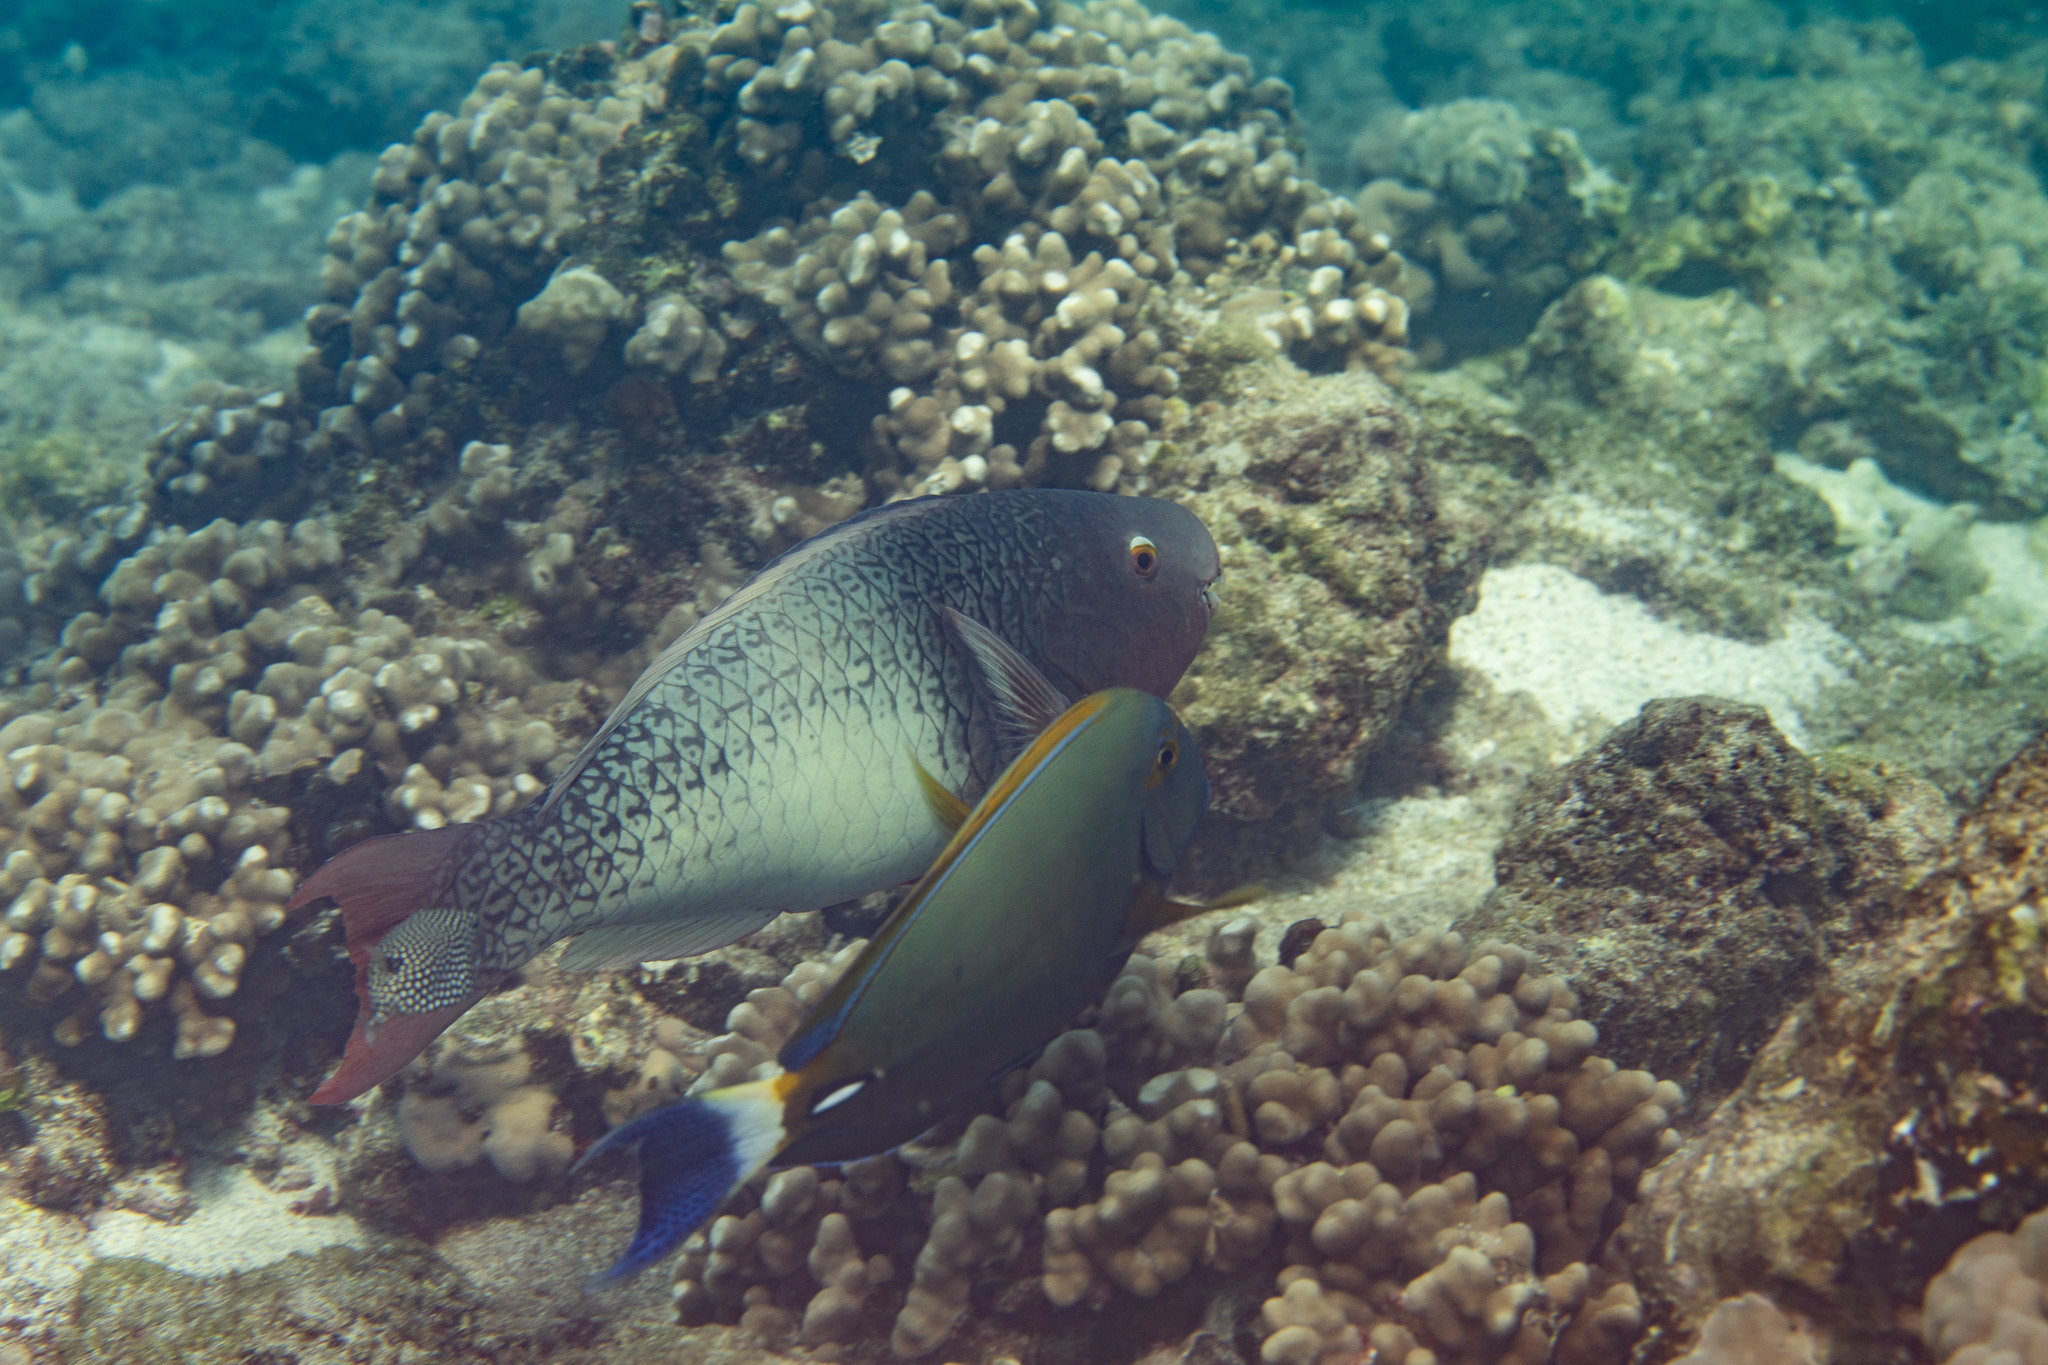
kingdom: Animalia
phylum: Chordata
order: Perciformes
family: Scaridae
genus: Scarus
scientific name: Scarus rubroviolaceus
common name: Ember parrotfish
